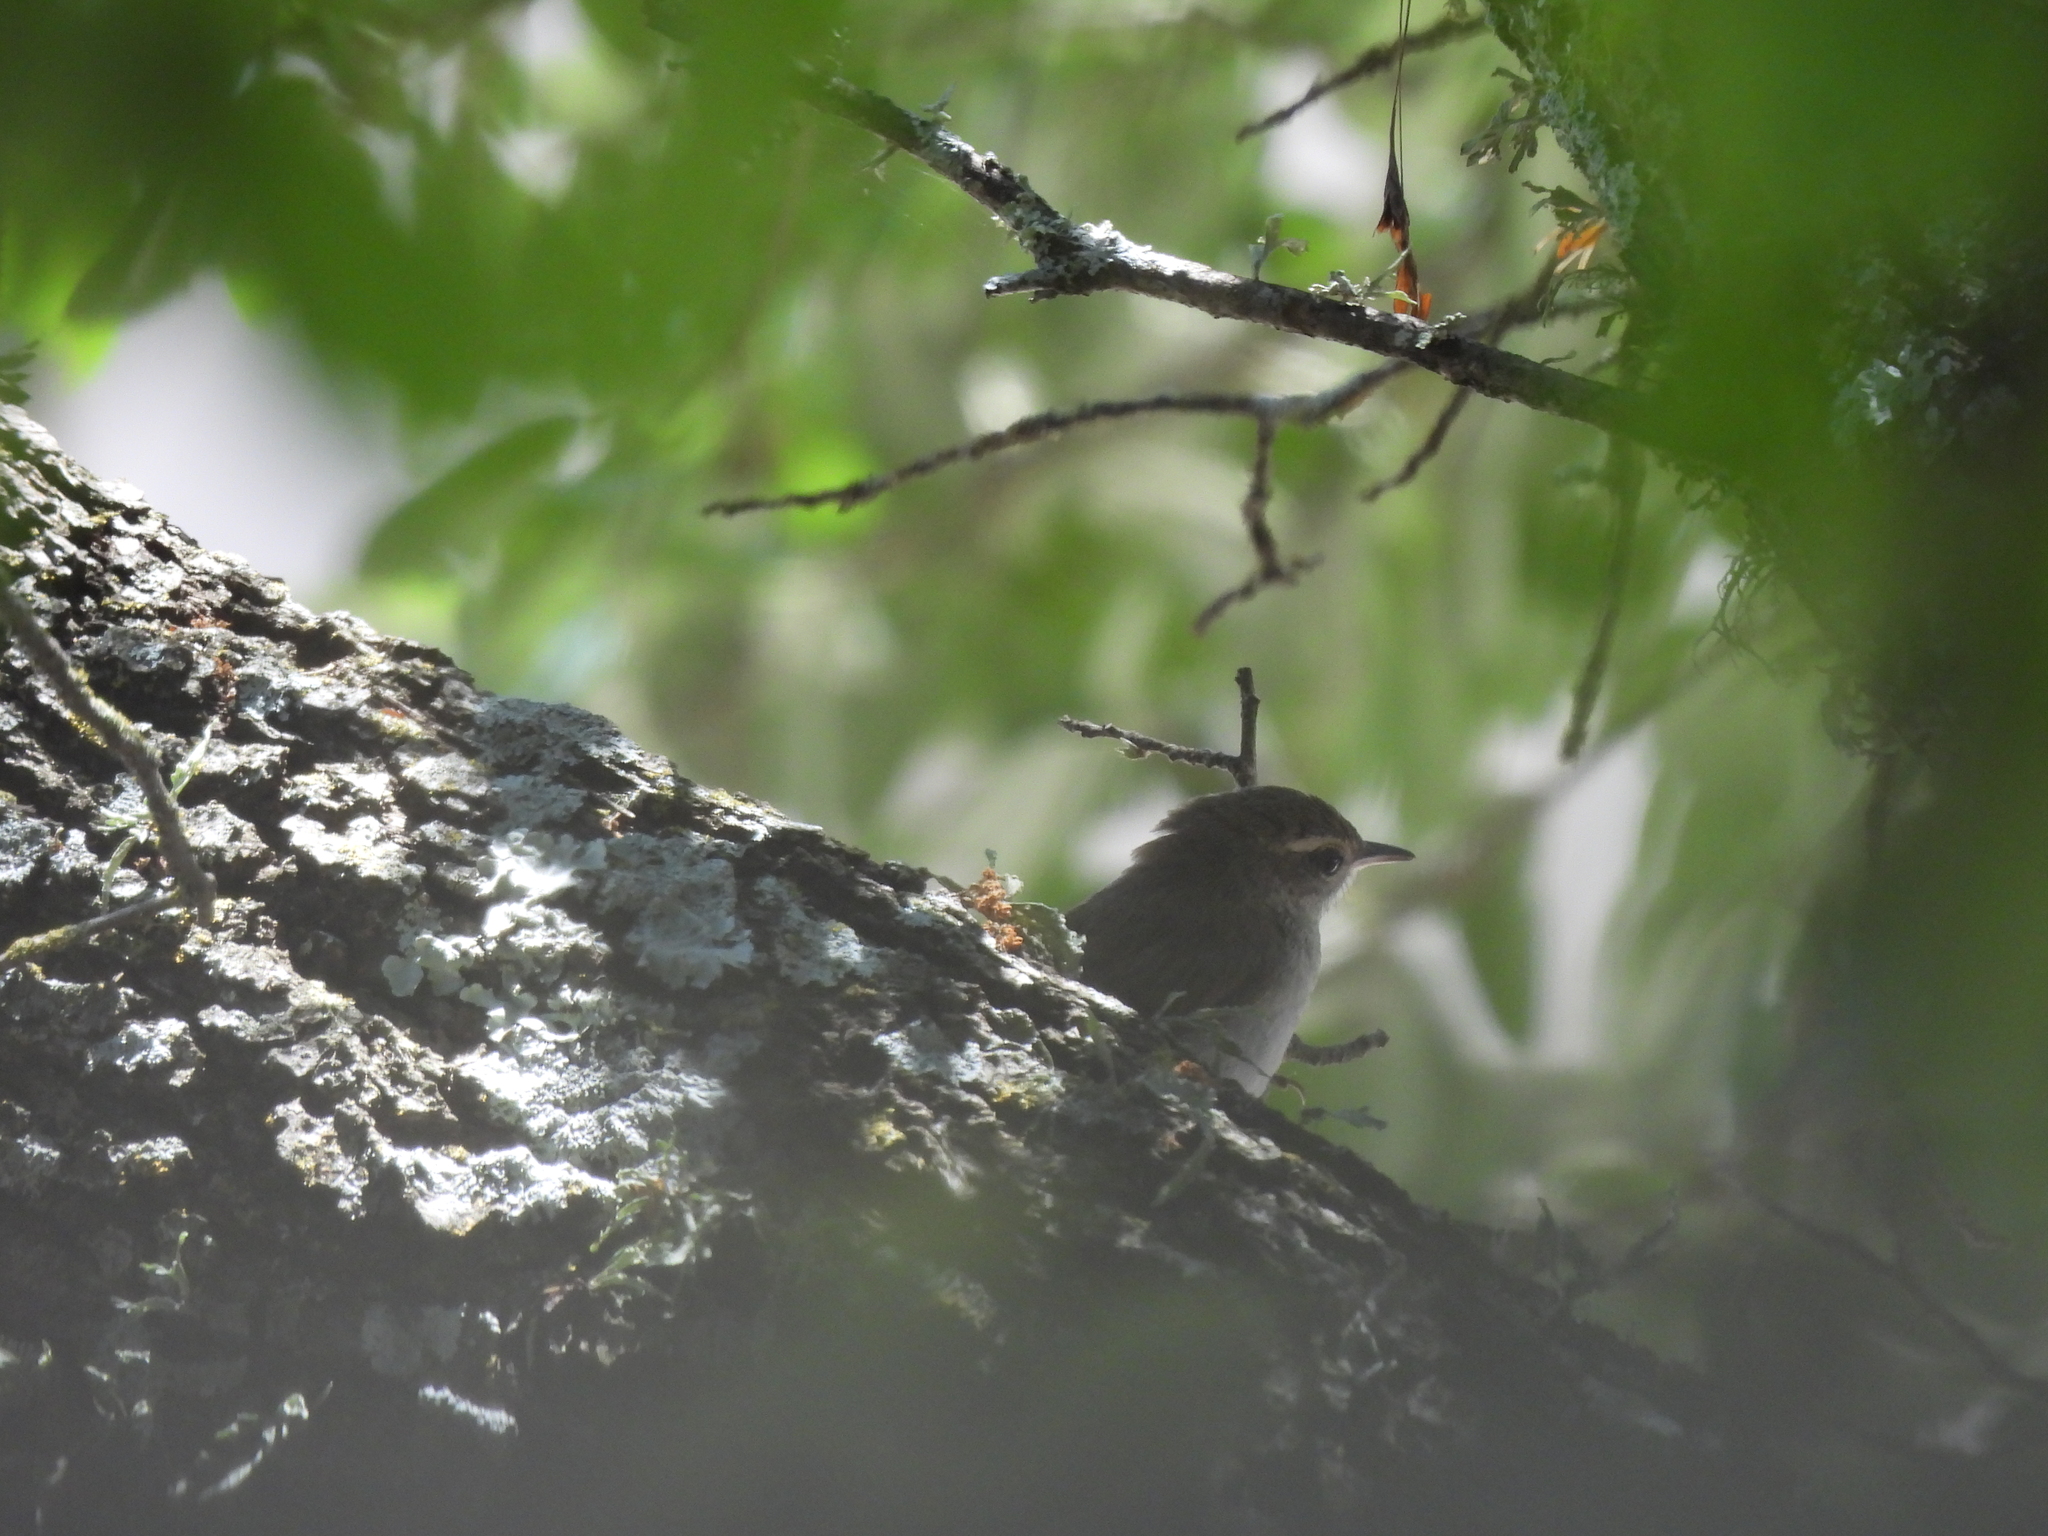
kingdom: Animalia
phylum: Chordata
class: Aves
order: Passeriformes
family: Troglodytidae
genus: Thryomanes
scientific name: Thryomanes bewickii
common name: Bewick's wren
